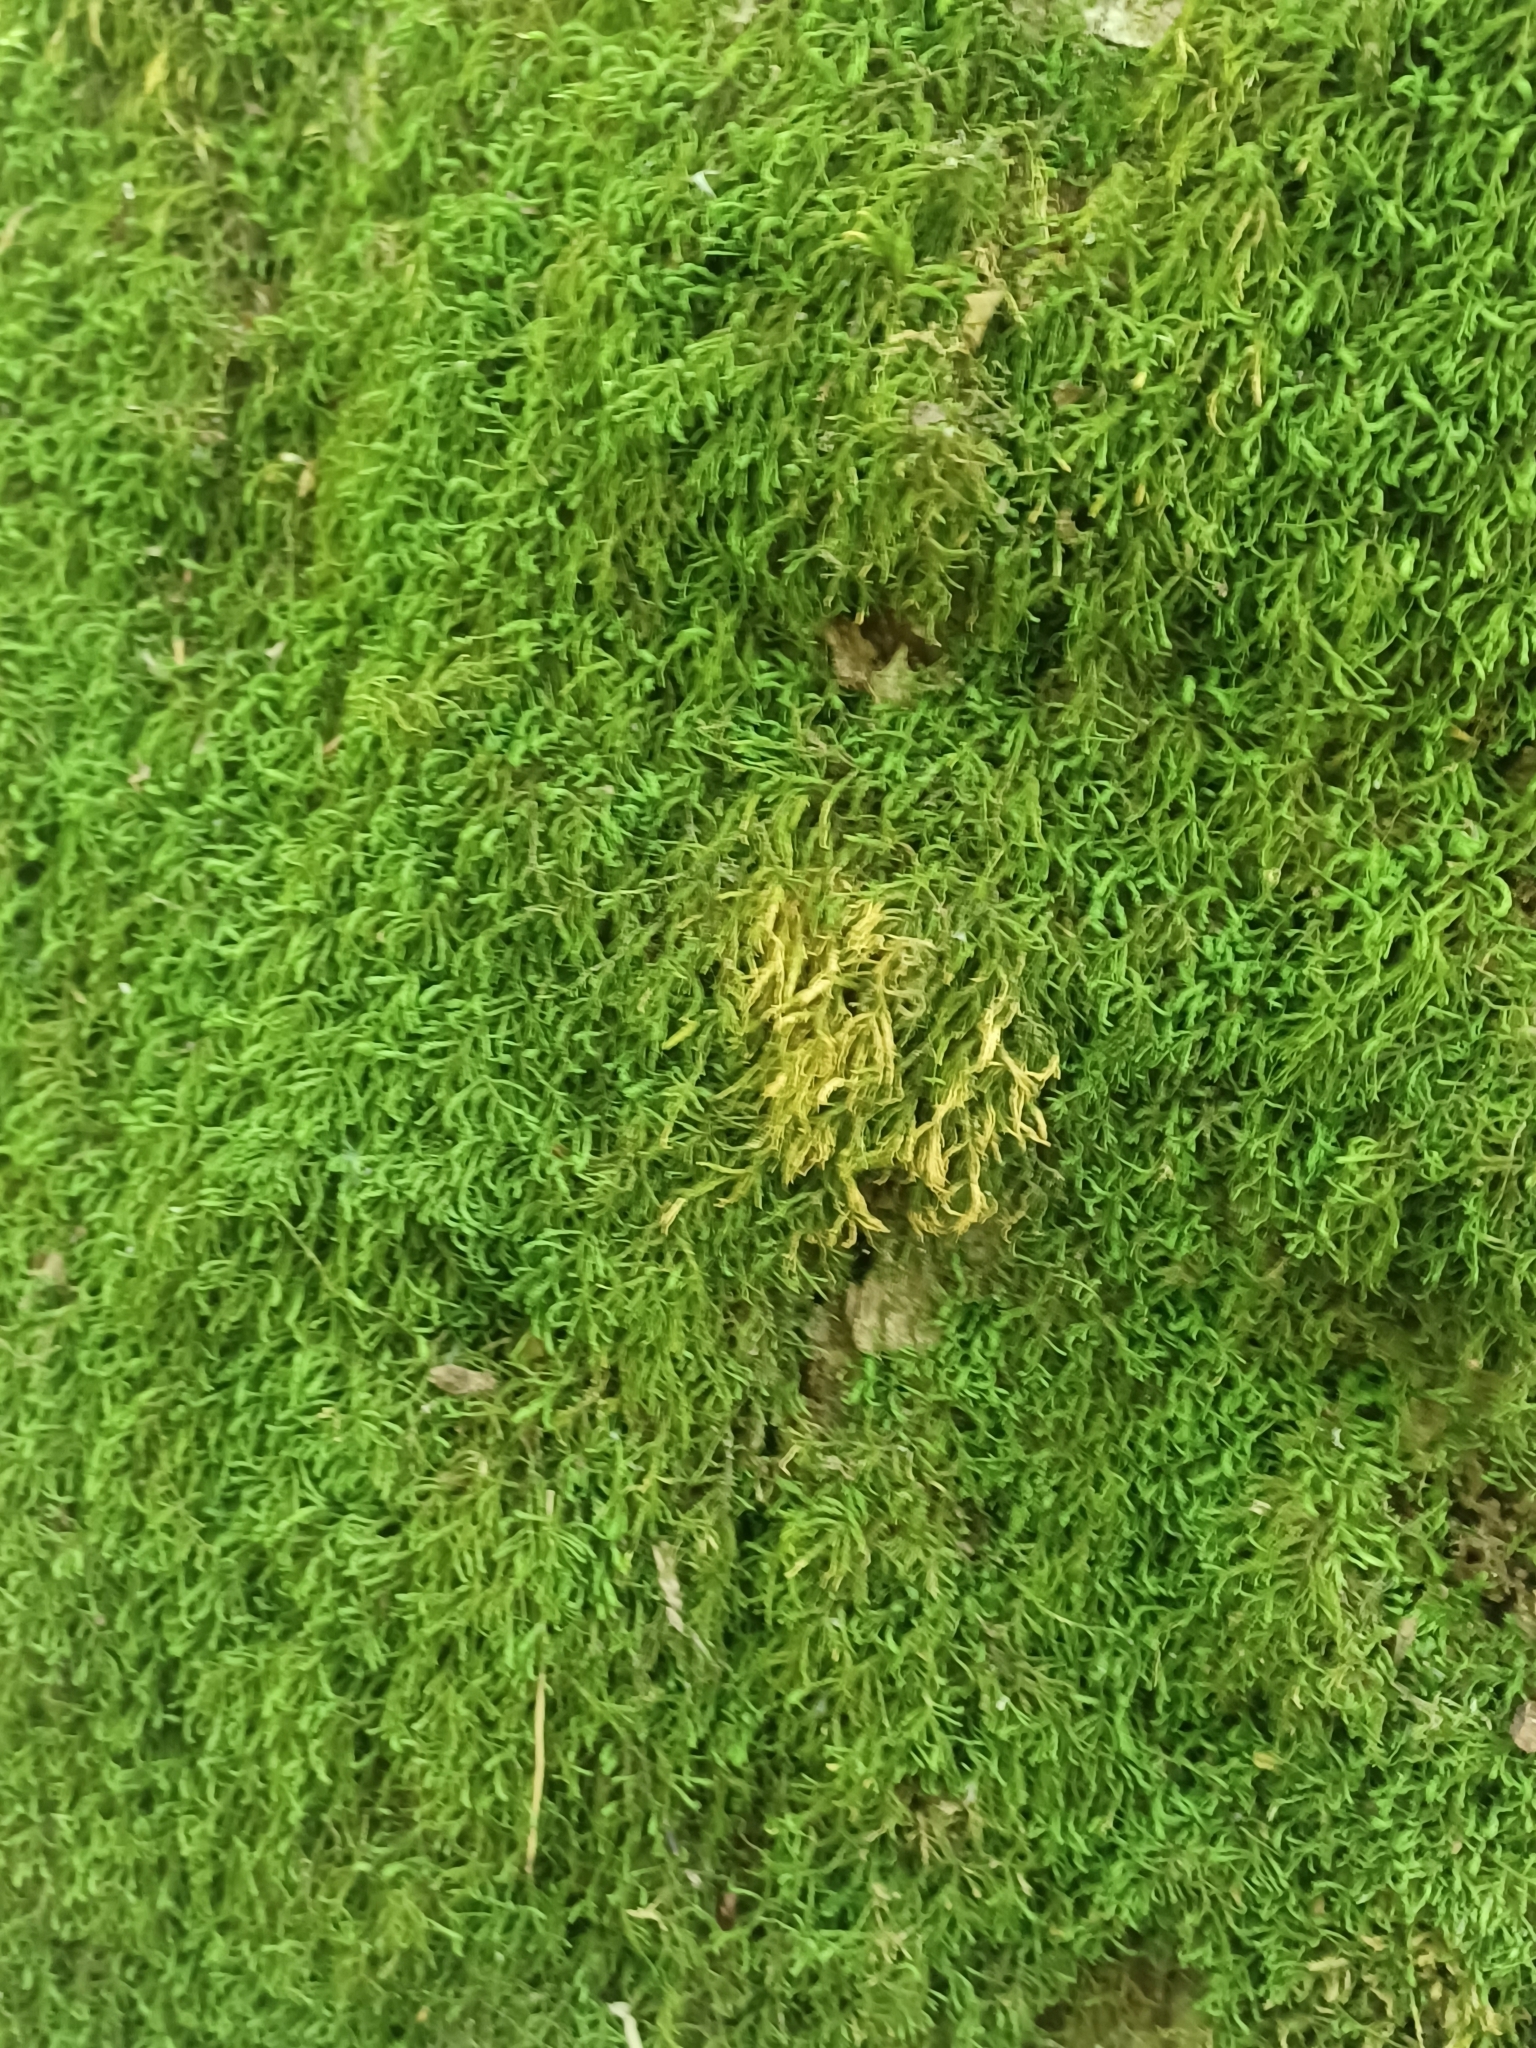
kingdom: Plantae
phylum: Bryophyta
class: Bryopsida
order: Hypnales
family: Neckeraceae
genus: Pseudanomodon
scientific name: Pseudanomodon attenuatus
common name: Tree-skirt moss
